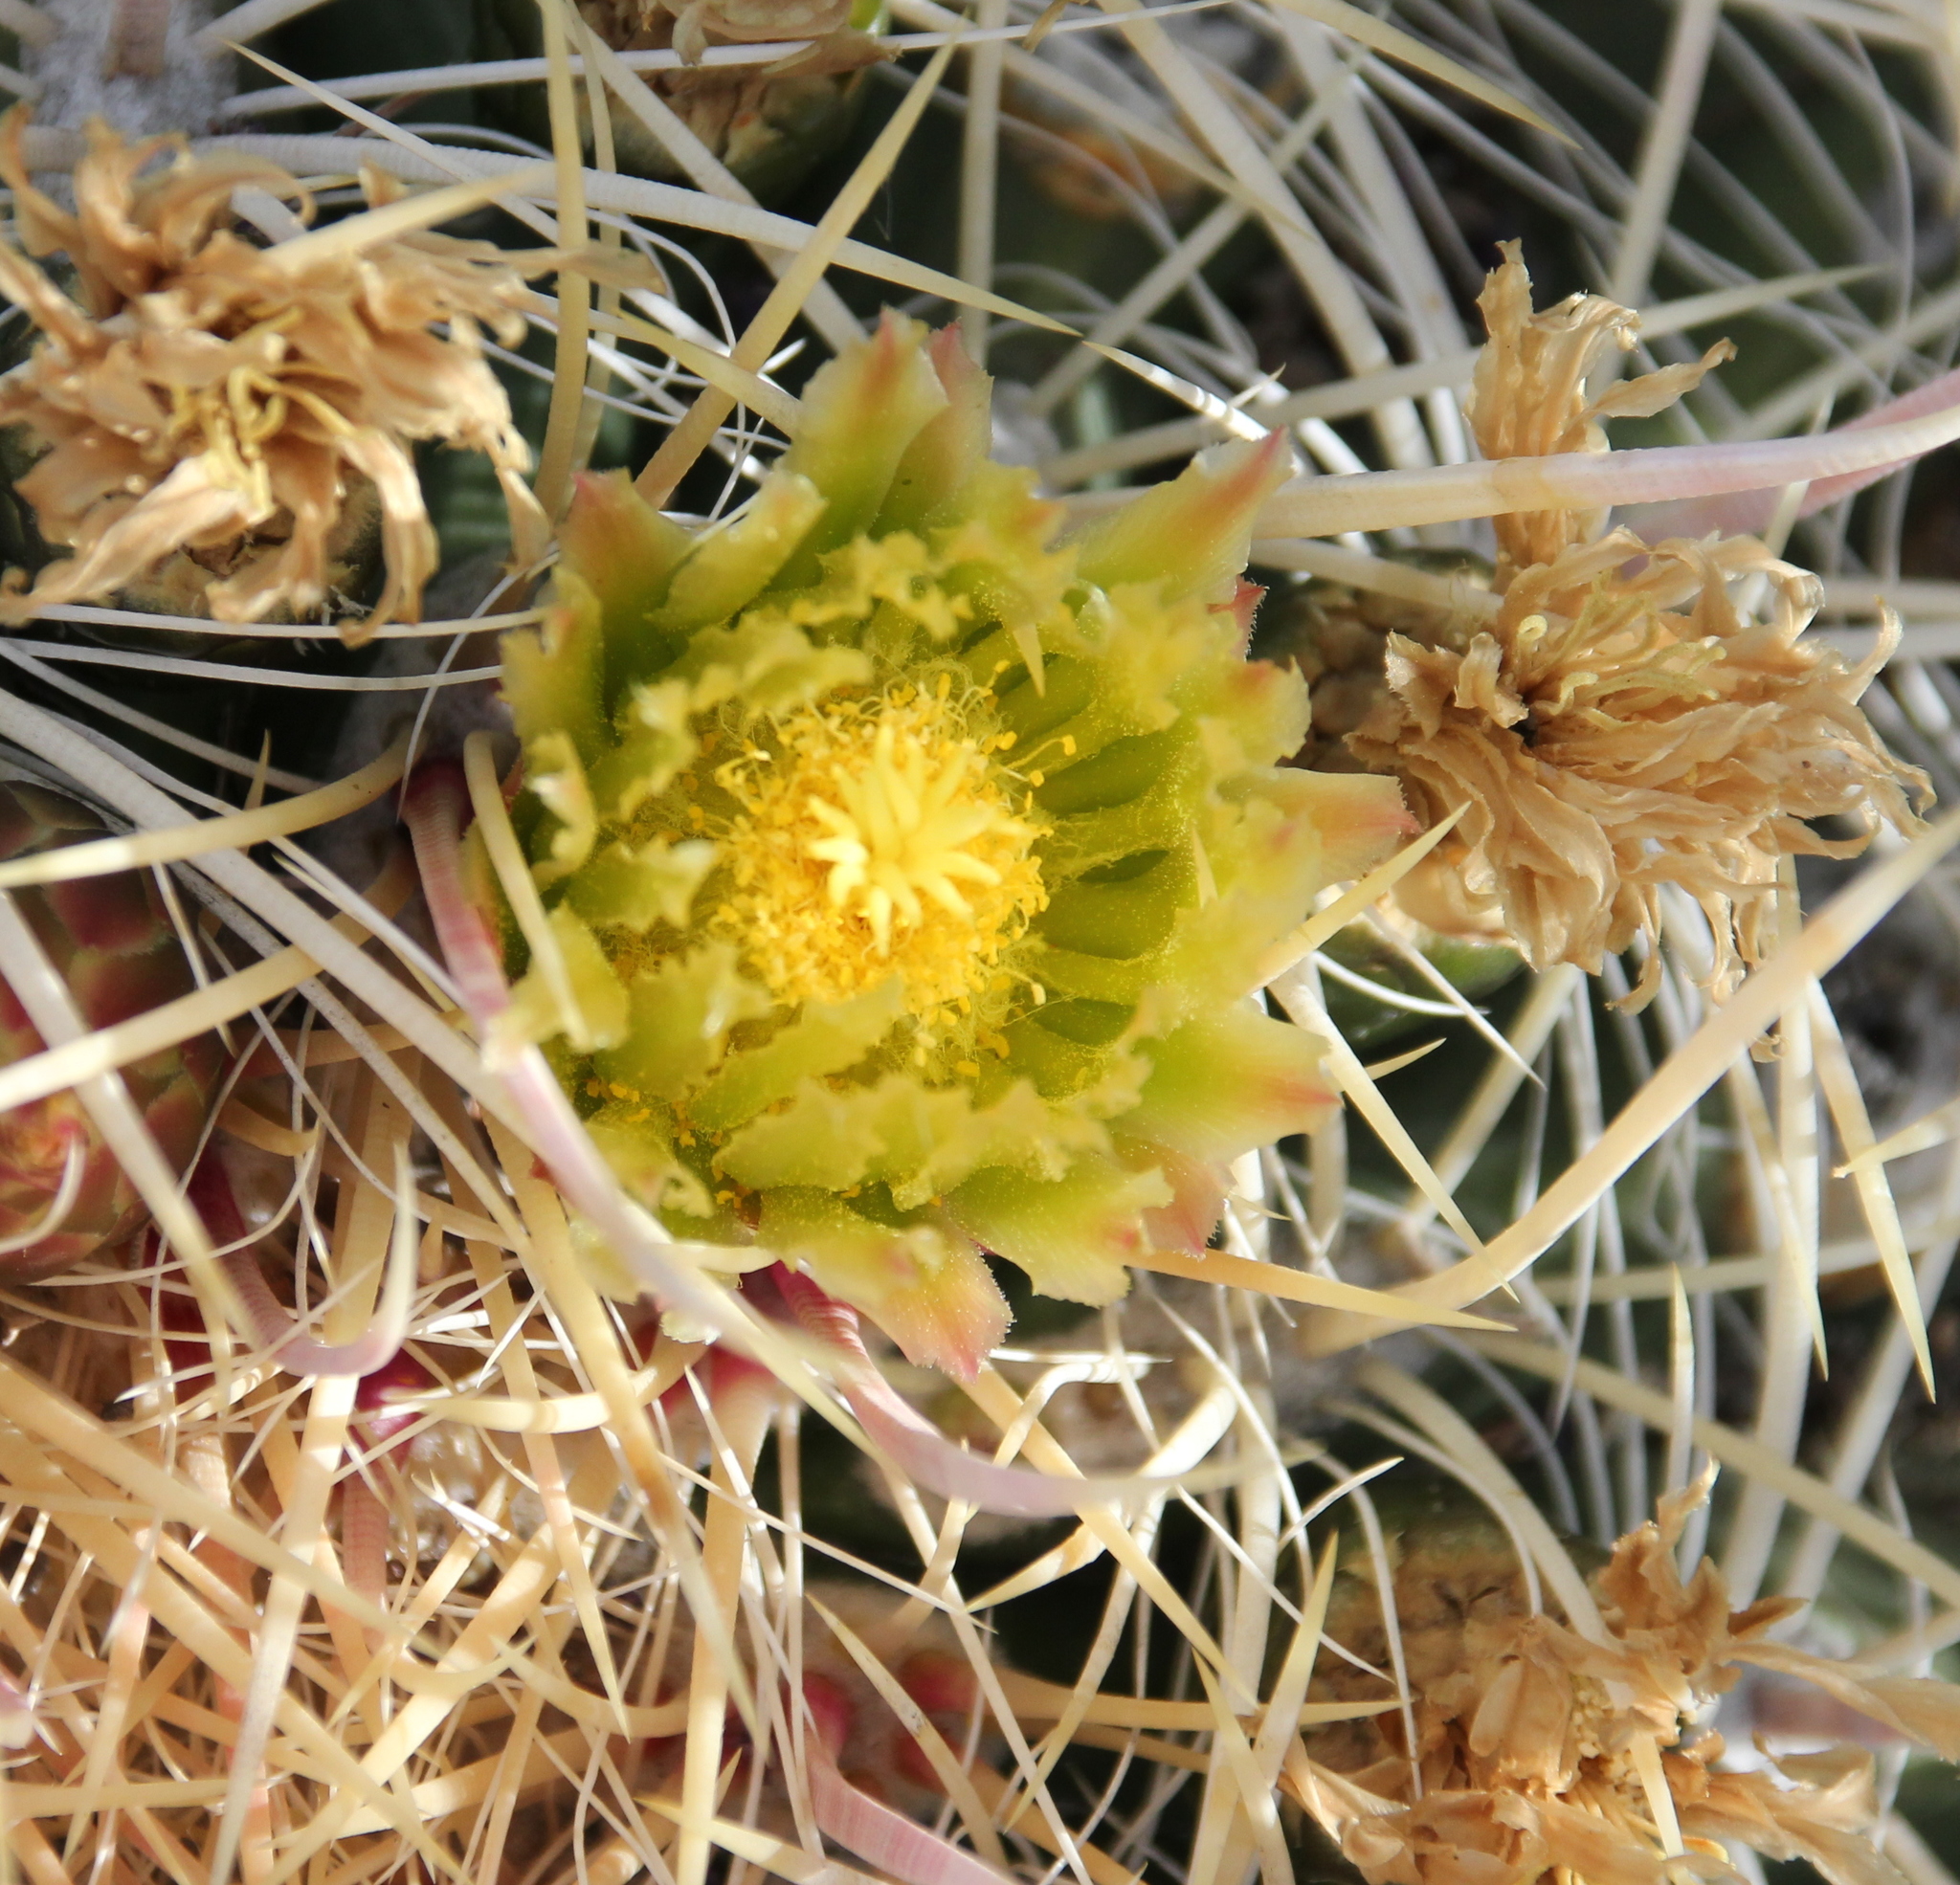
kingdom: Plantae
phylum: Tracheophyta
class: Magnoliopsida
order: Caryophyllales
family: Cactaceae
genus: Ferocactus
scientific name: Ferocactus cylindraceus
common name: California barrel cactus
